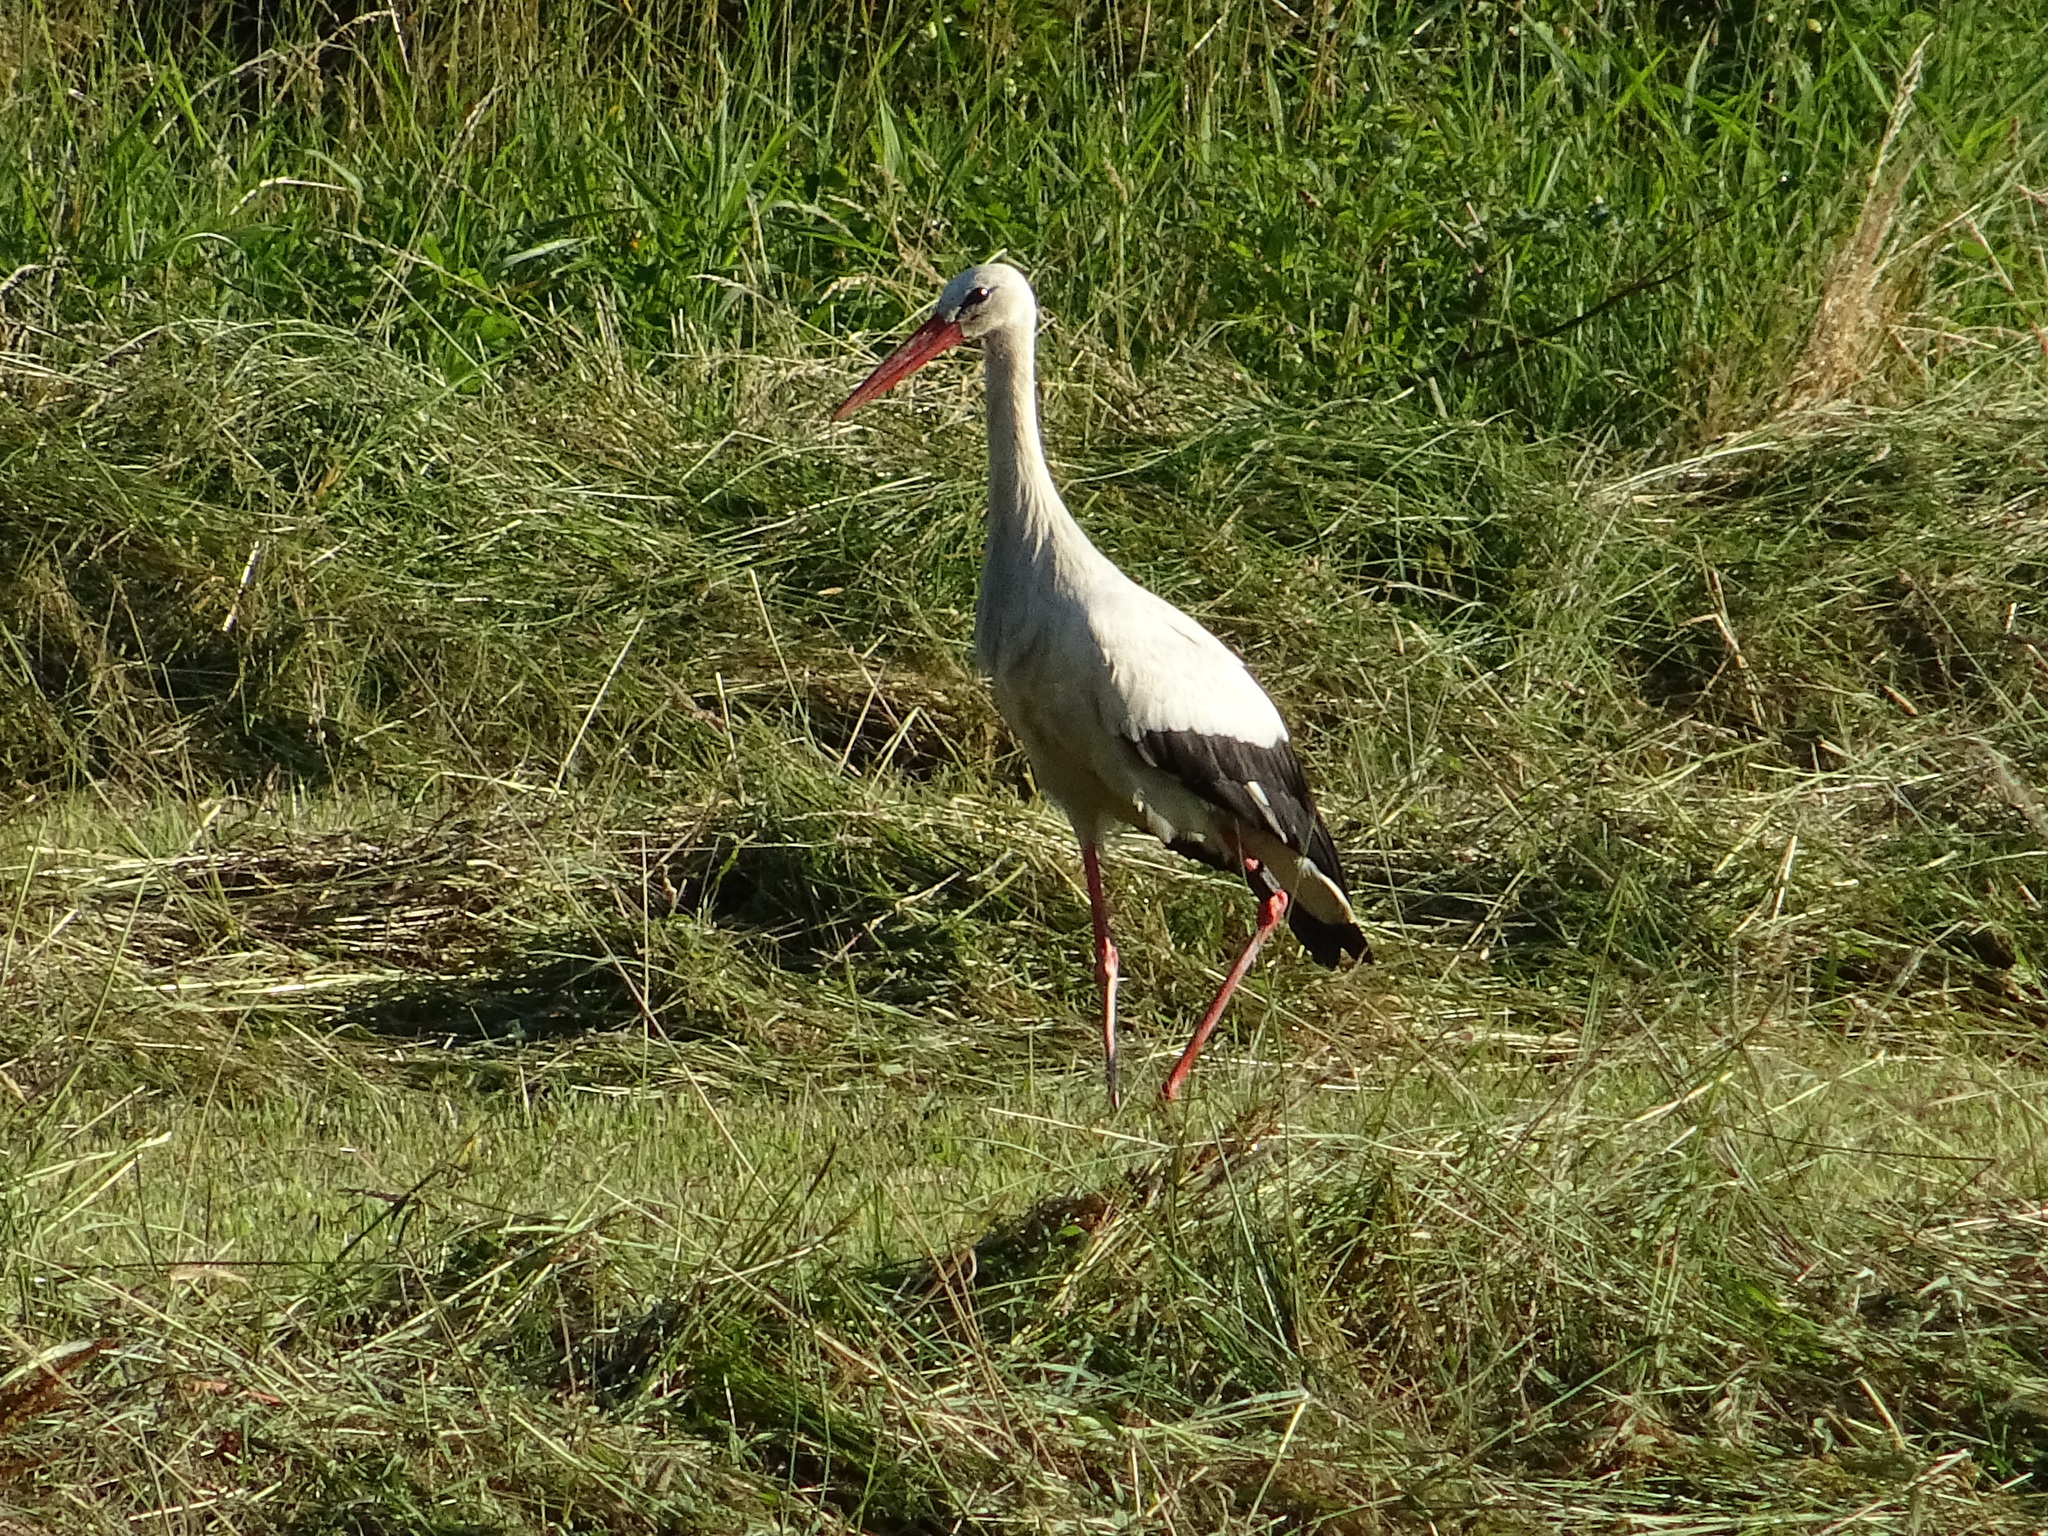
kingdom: Animalia
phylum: Chordata
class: Aves
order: Ciconiiformes
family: Ciconiidae
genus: Ciconia
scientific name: Ciconia ciconia
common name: White stork
